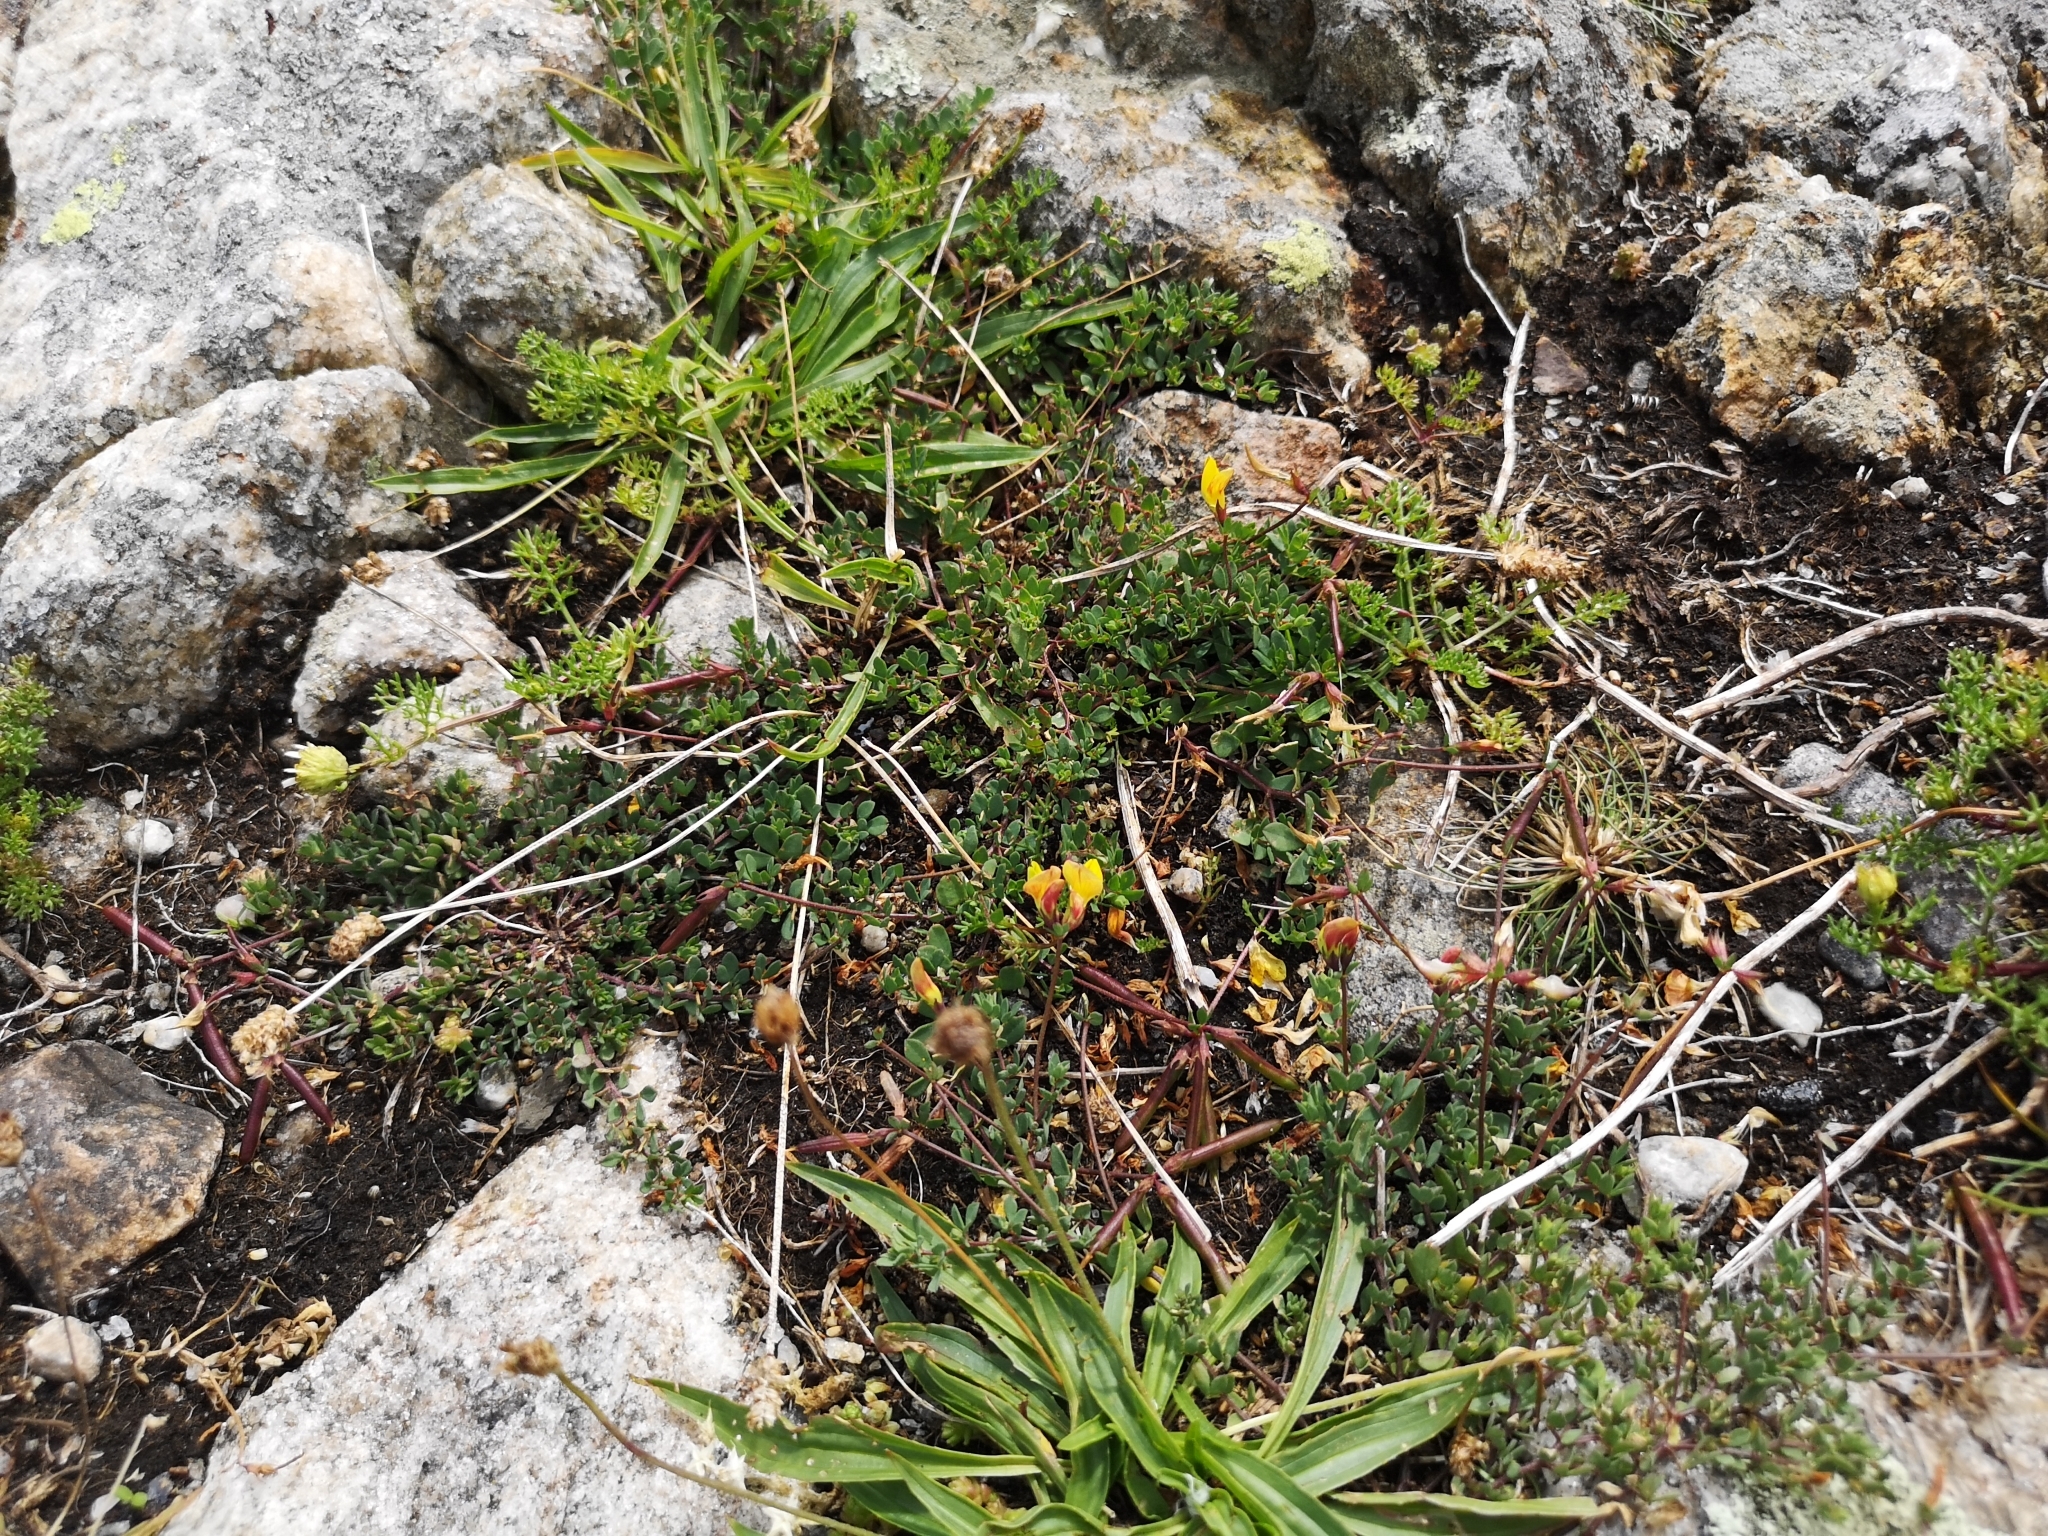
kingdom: Plantae
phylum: Tracheophyta
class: Magnoliopsida
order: Fabales
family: Fabaceae
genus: Lotus
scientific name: Lotus corniculatus
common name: Common bird's-foot-trefoil
